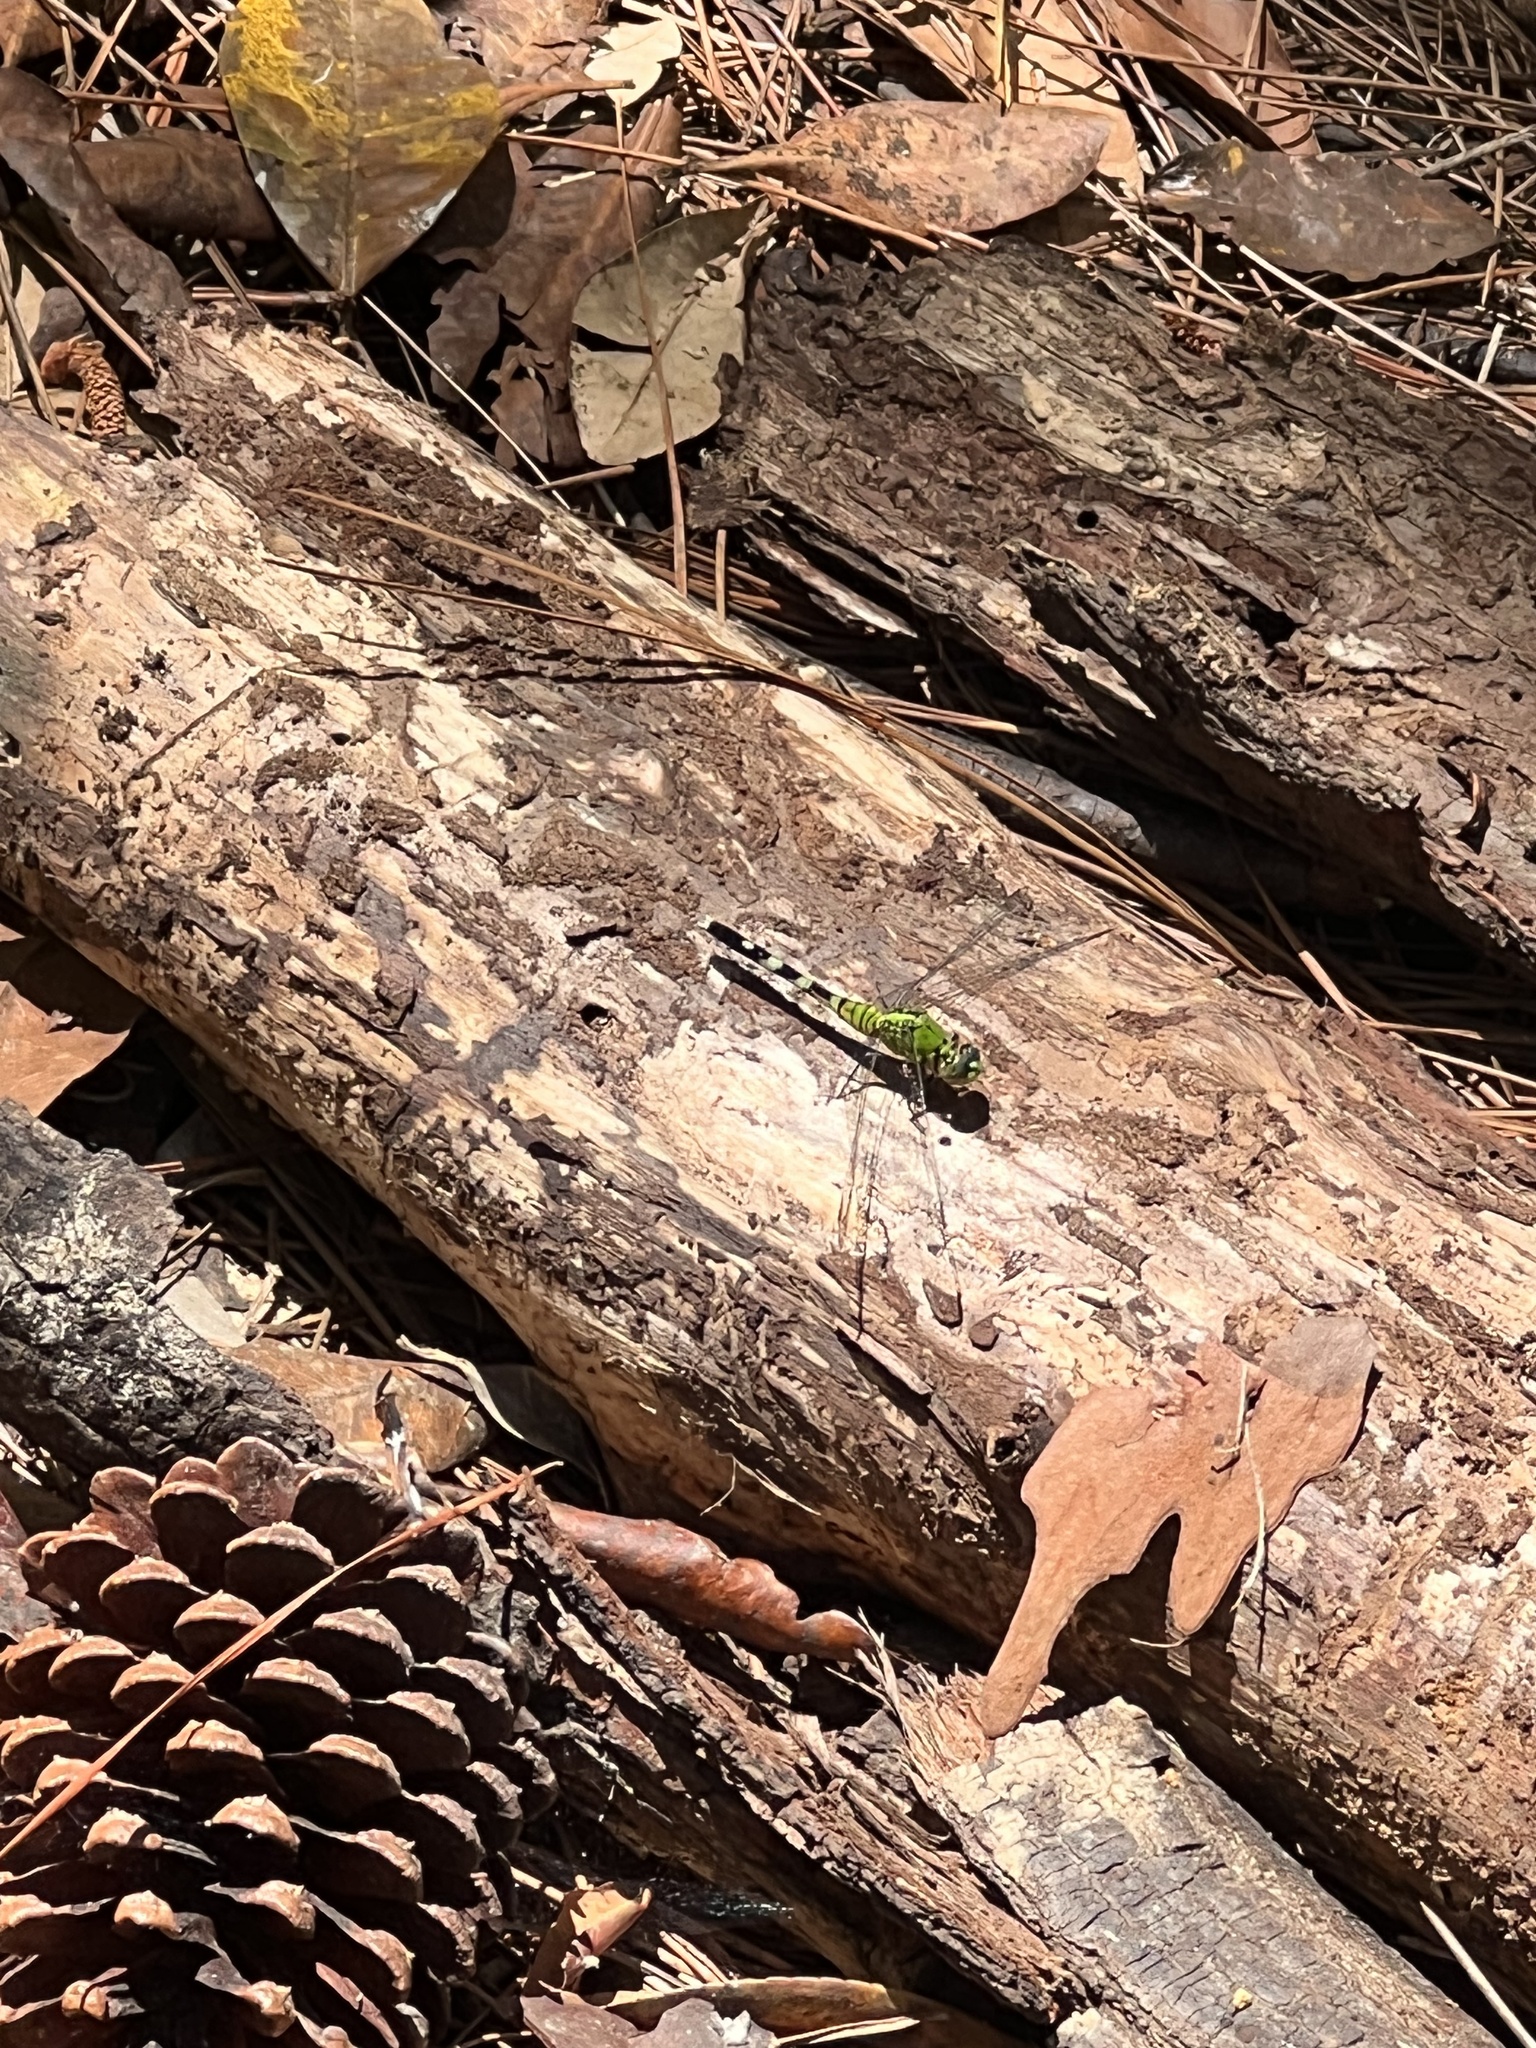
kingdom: Animalia
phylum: Arthropoda
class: Insecta
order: Odonata
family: Libellulidae
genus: Erythemis
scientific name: Erythemis simplicicollis
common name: Eastern pondhawk
